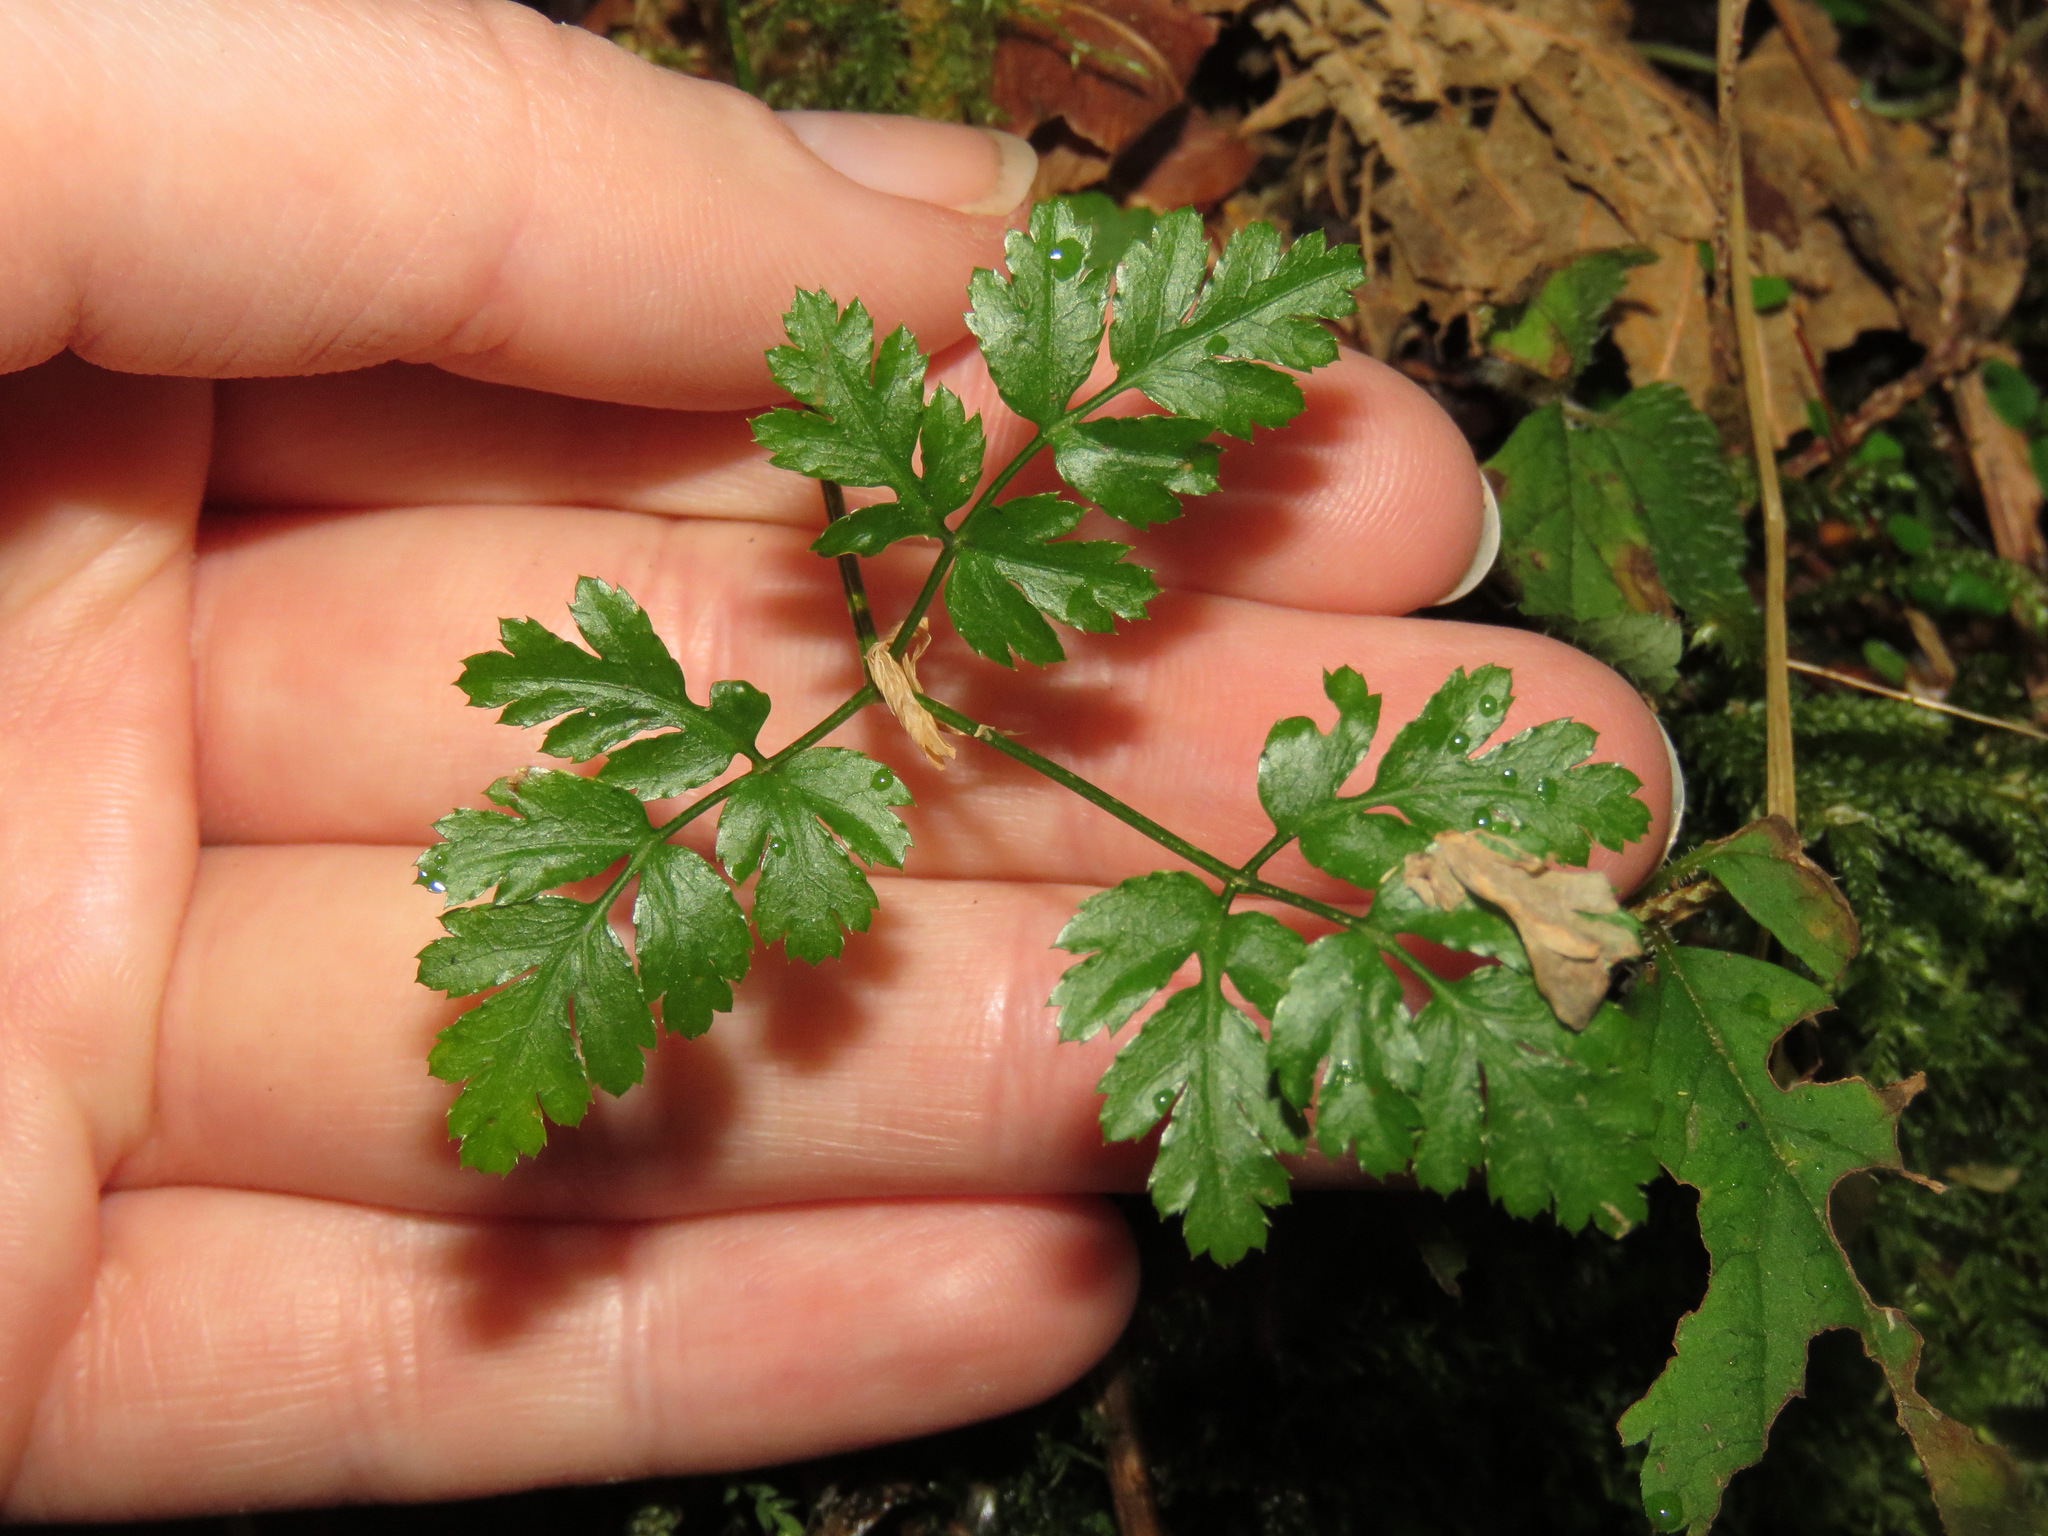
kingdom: Plantae
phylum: Tracheophyta
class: Magnoliopsida
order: Ranunculales
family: Ranunculaceae
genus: Coptis
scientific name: Coptis aspleniifolia
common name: Fern-leaved goldthread
